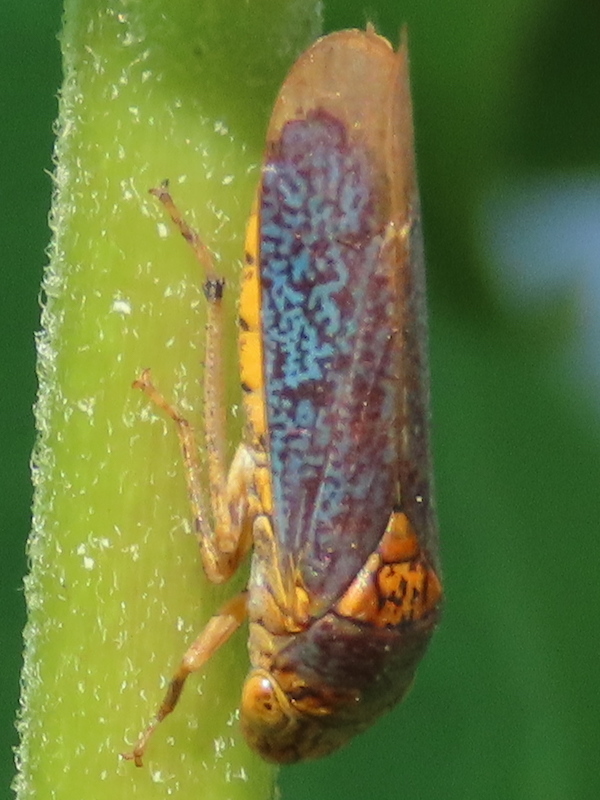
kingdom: Animalia
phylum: Arthropoda
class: Insecta
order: Hemiptera
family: Cicadellidae
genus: Oncometopia
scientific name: Oncometopia orbona
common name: Broad-headed sharpshooter
